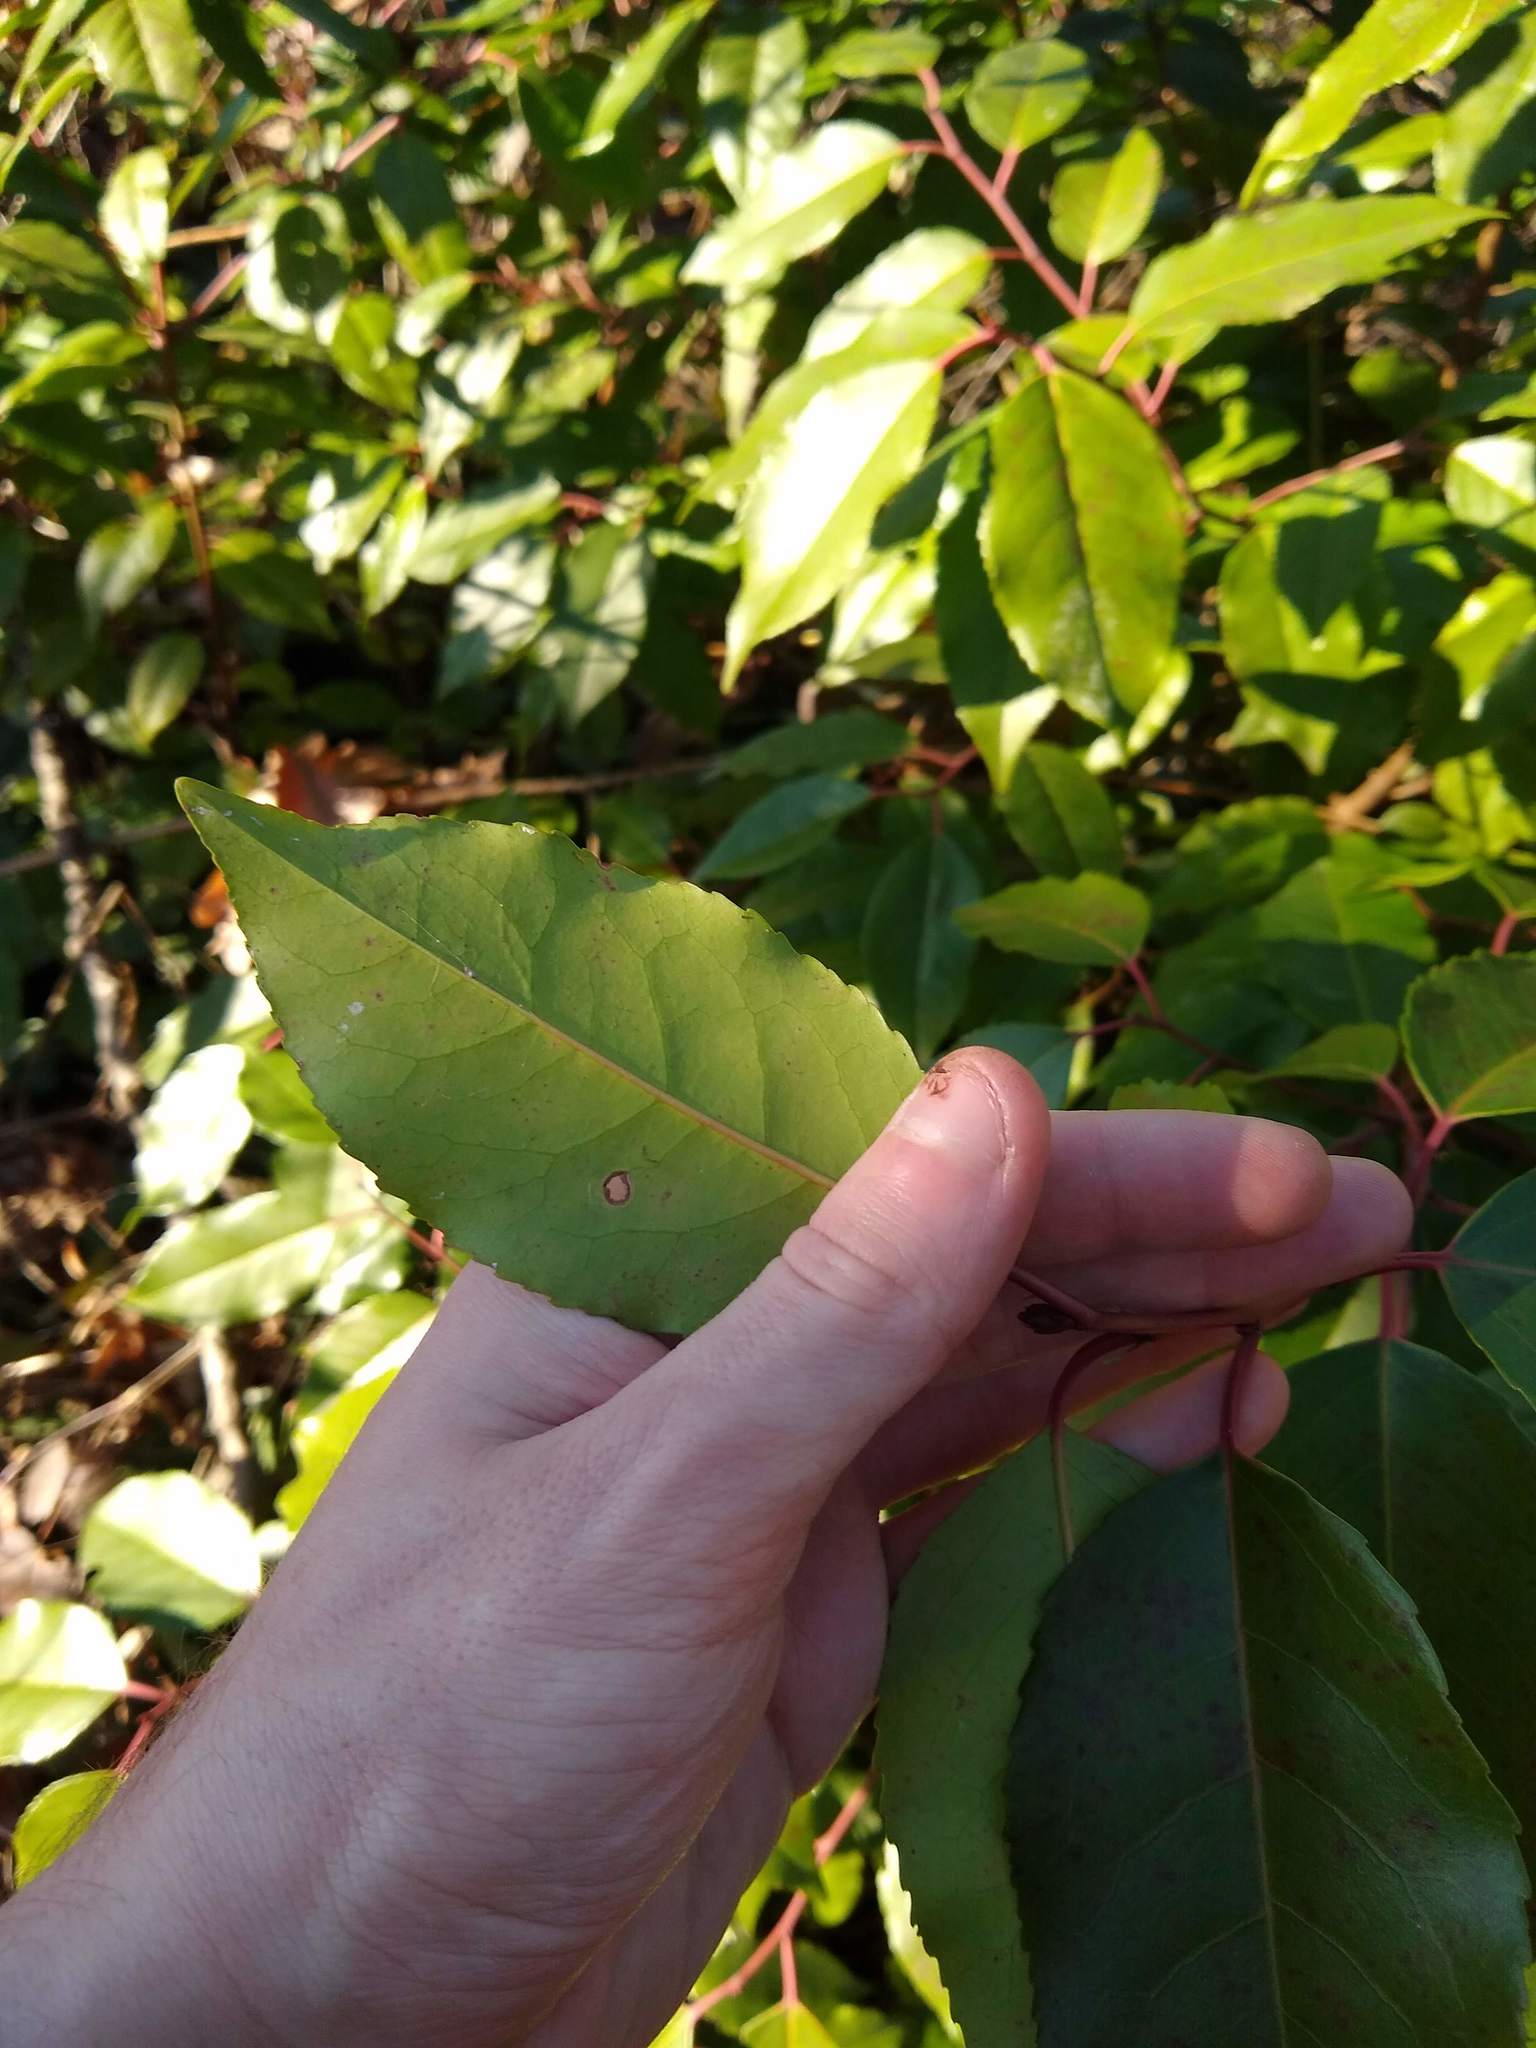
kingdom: Plantae
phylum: Tracheophyta
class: Magnoliopsida
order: Rosales
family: Rosaceae
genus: Prunus
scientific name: Prunus lusitanica
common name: Portugal laurel
